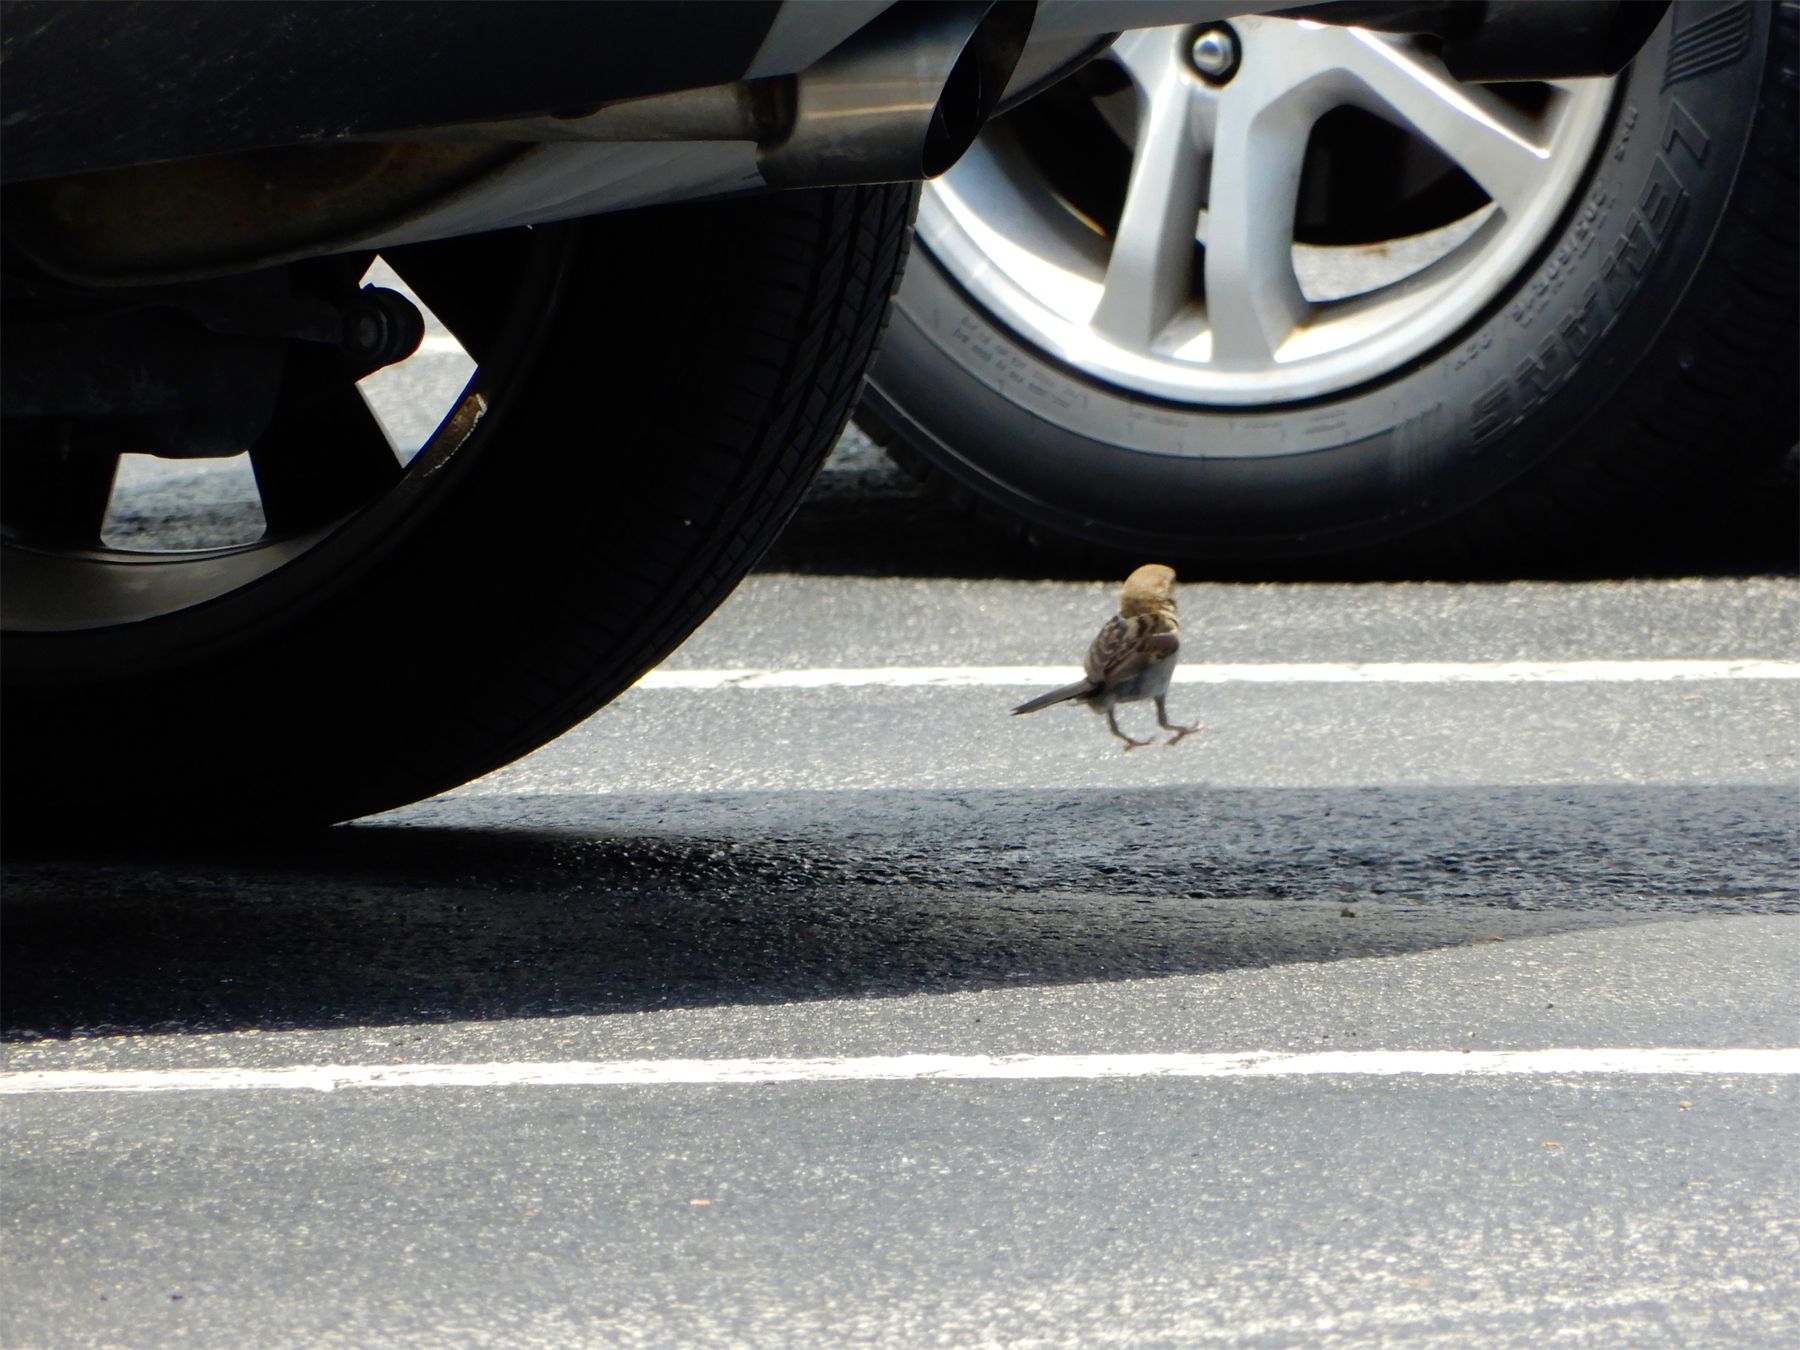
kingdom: Animalia
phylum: Chordata
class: Aves
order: Passeriformes
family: Passeridae
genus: Passer
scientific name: Passer domesticus
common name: House sparrow
